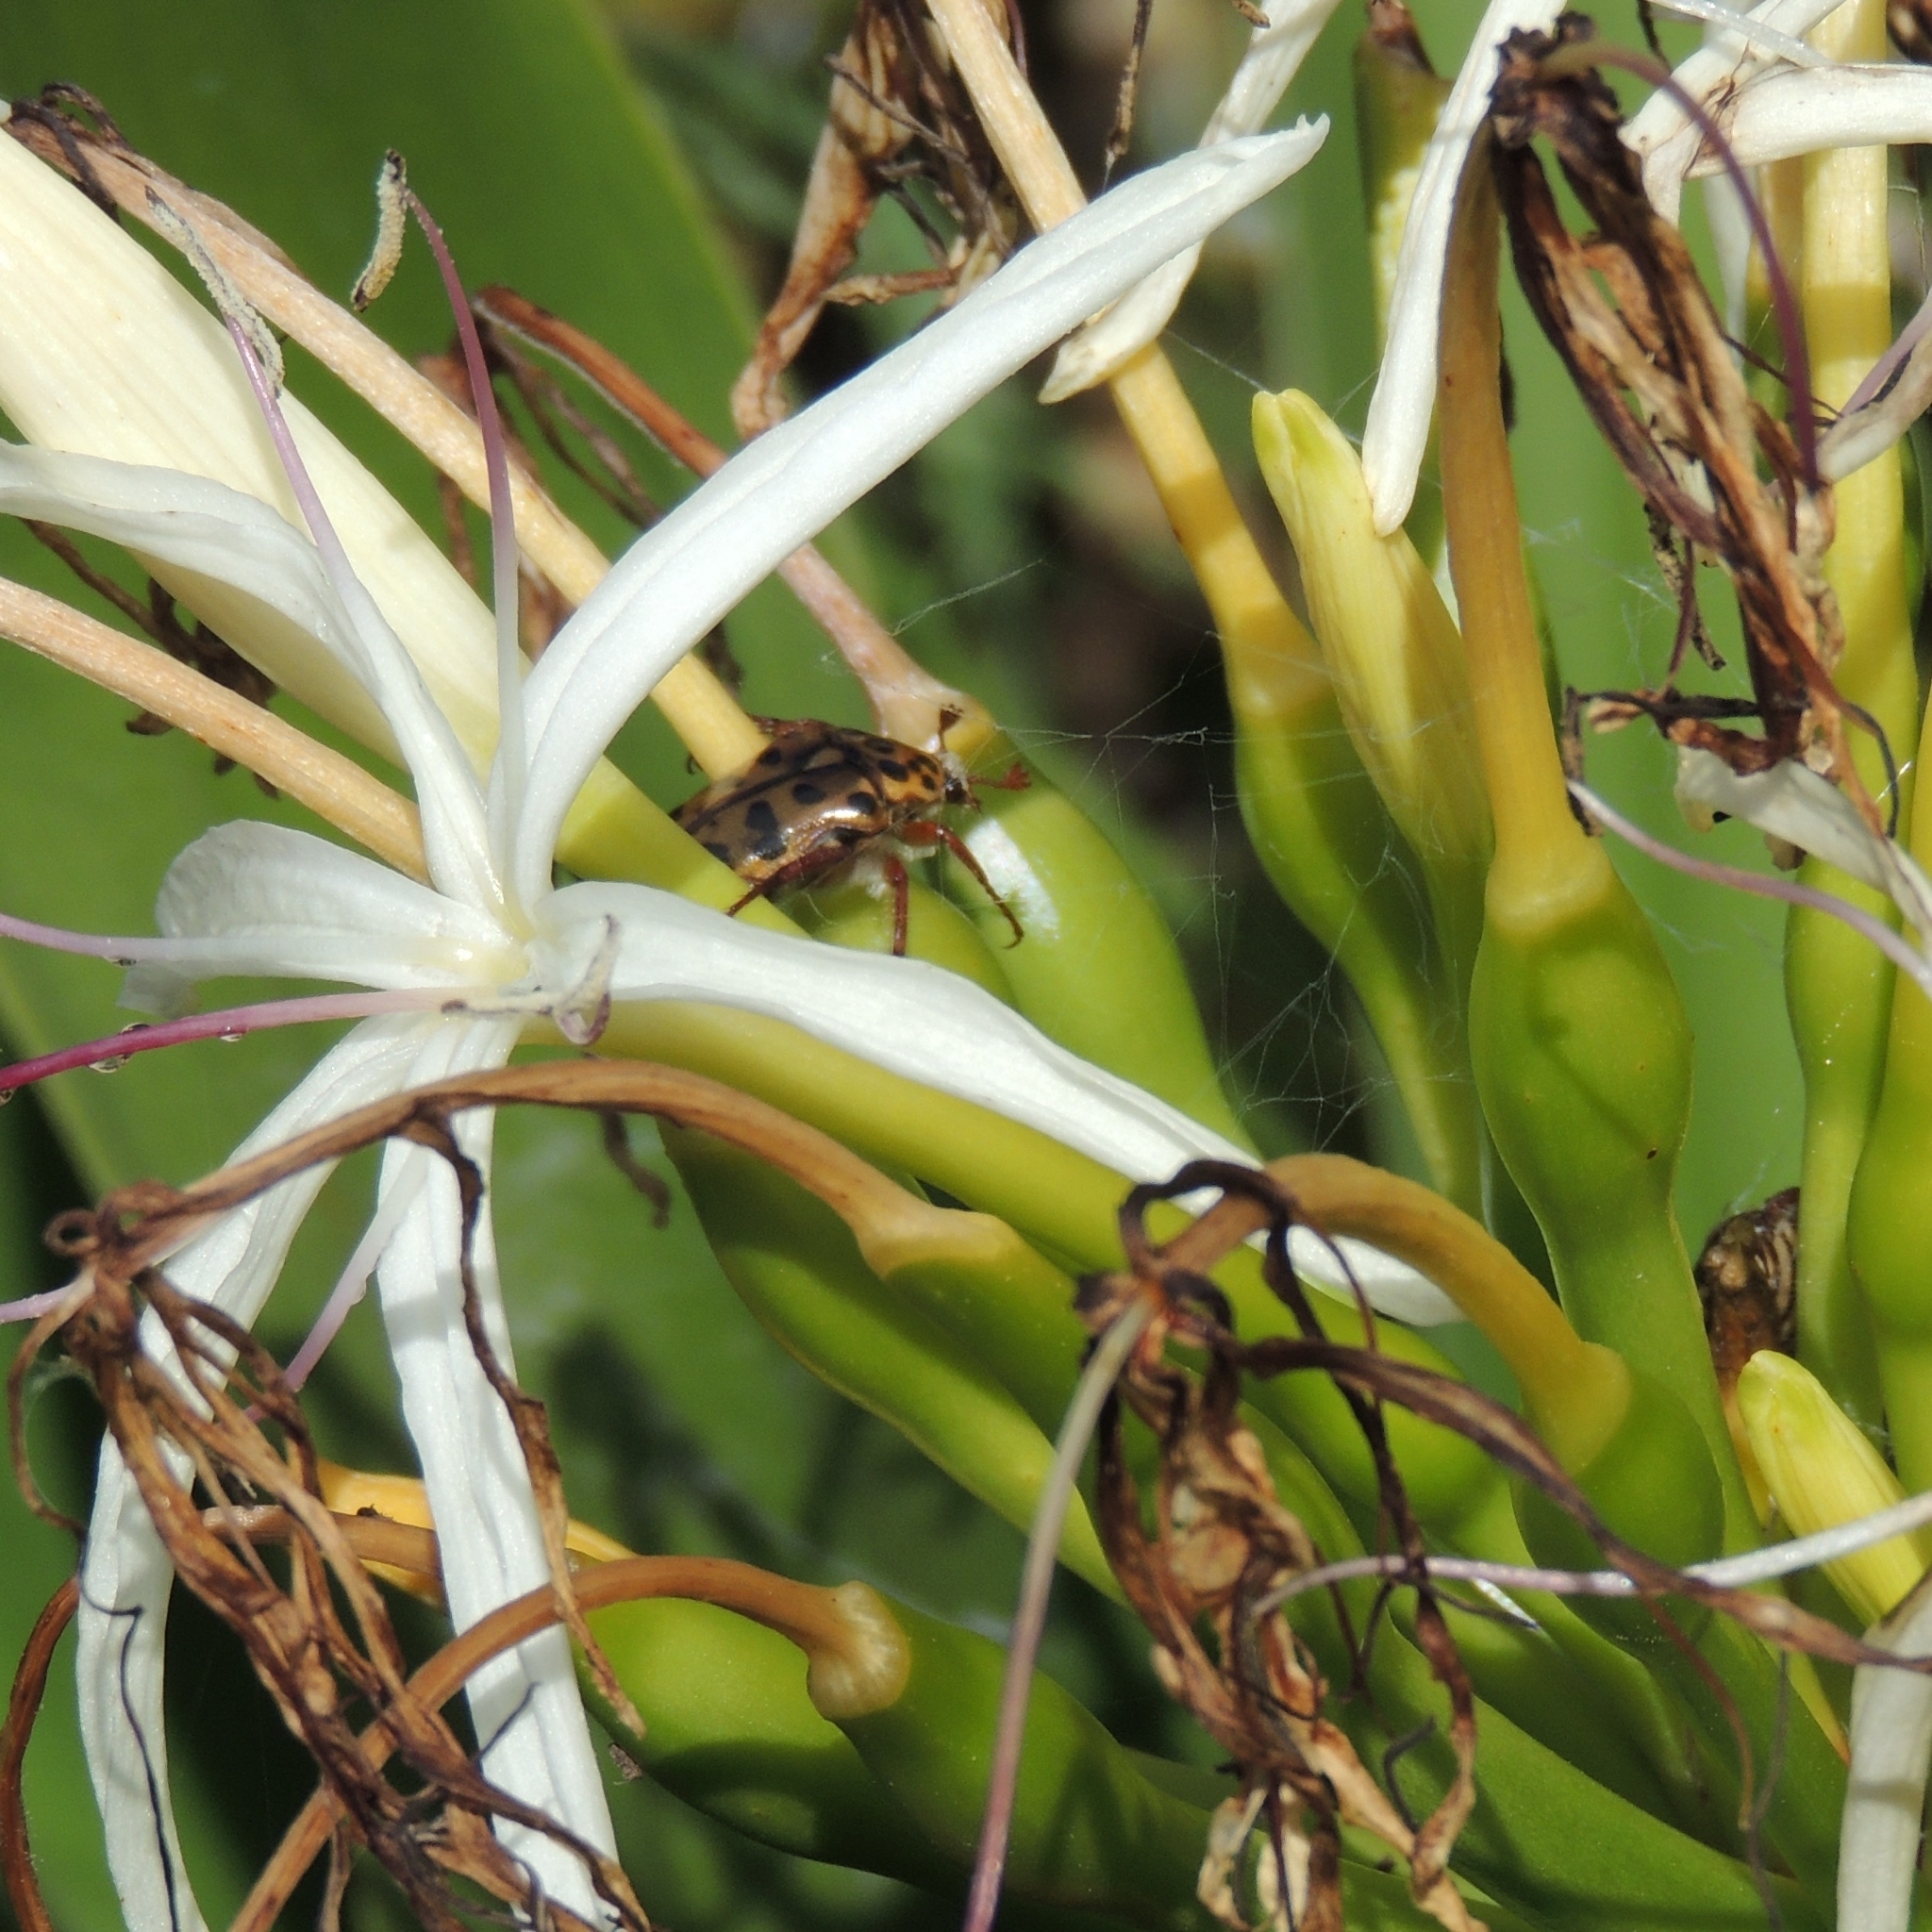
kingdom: Animalia
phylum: Arthropoda
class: Insecta
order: Coleoptera
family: Scarabaeidae
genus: Neorrhina
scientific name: Neorrhina punctatum
